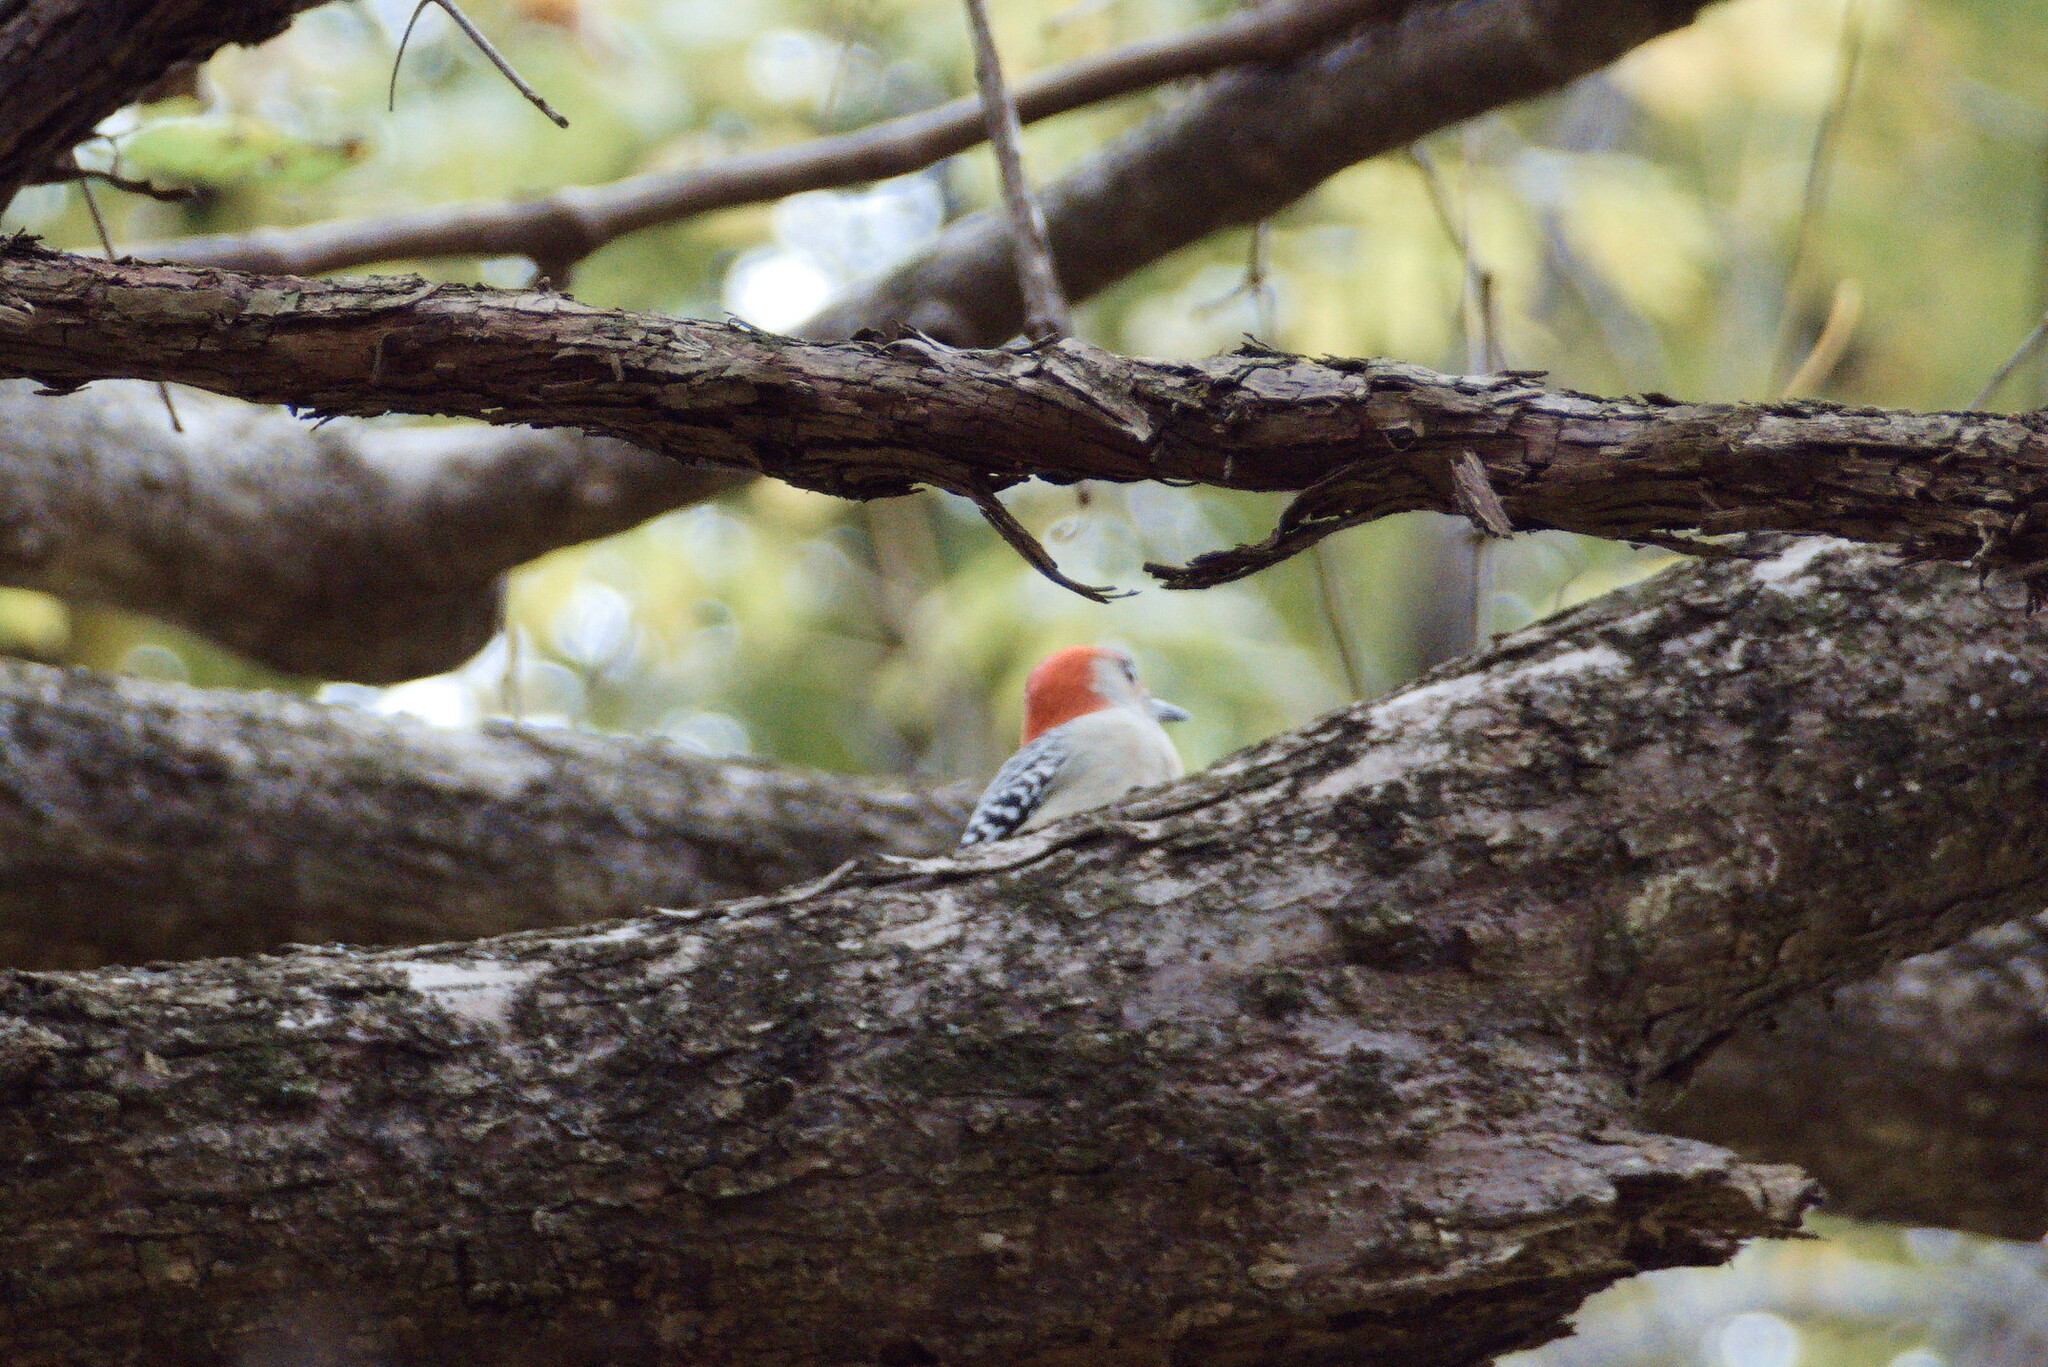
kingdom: Animalia
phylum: Chordata
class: Aves
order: Piciformes
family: Picidae
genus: Melanerpes
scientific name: Melanerpes carolinus
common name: Red-bellied woodpecker
